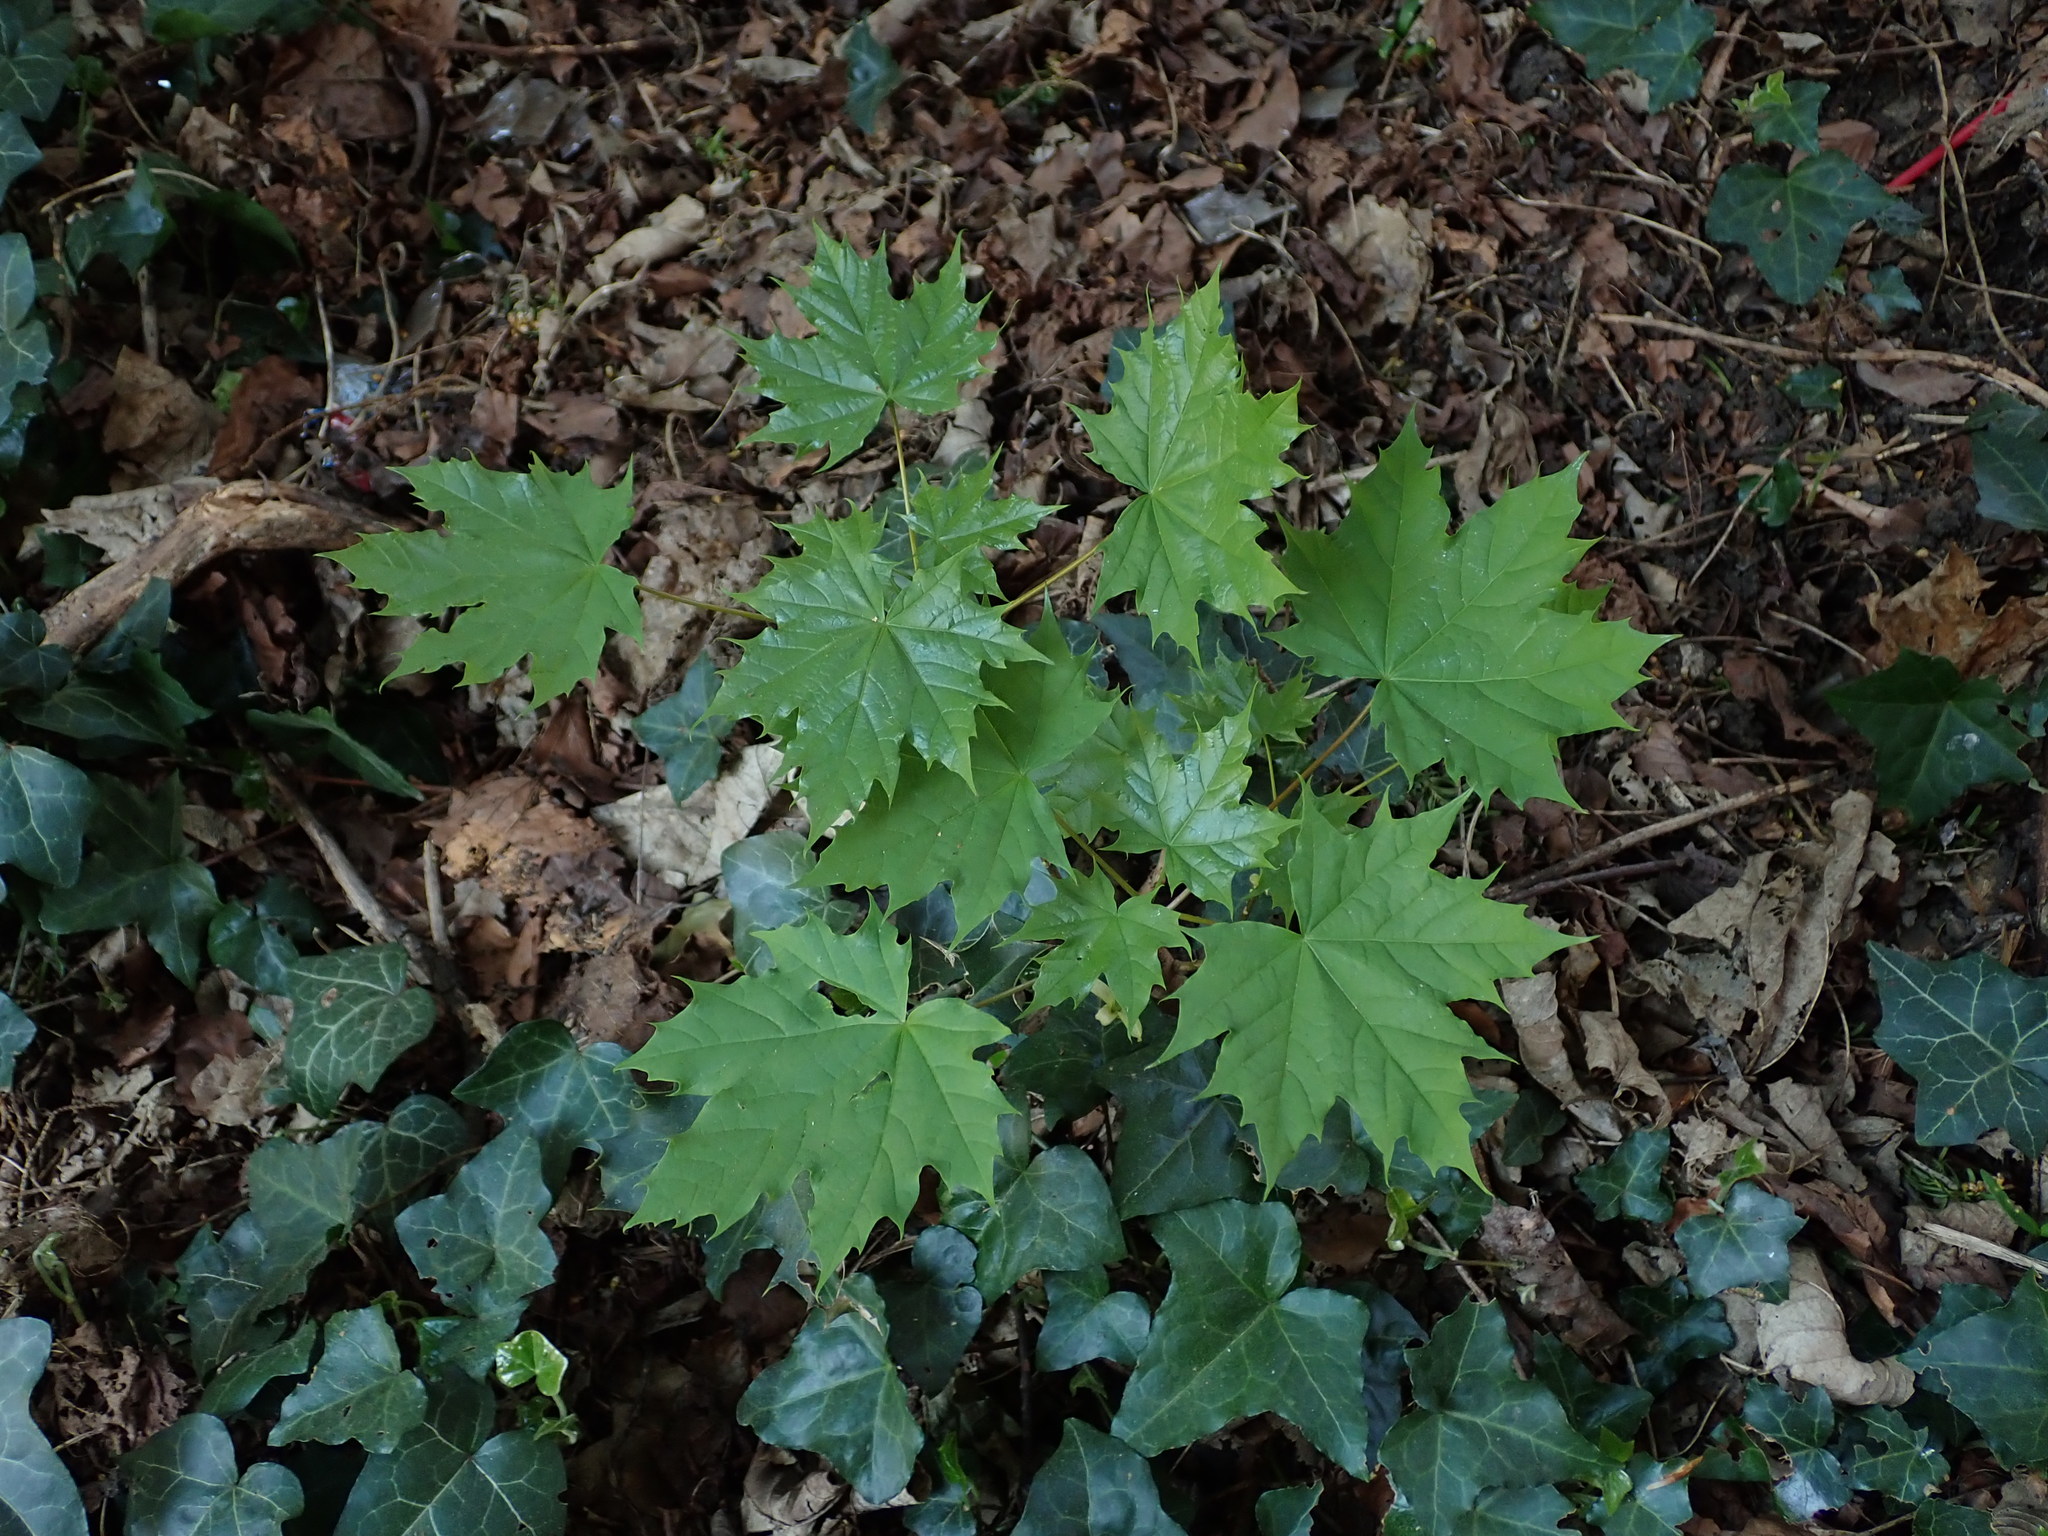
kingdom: Plantae
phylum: Tracheophyta
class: Magnoliopsida
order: Sapindales
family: Sapindaceae
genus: Acer
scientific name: Acer platanoides
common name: Norway maple
